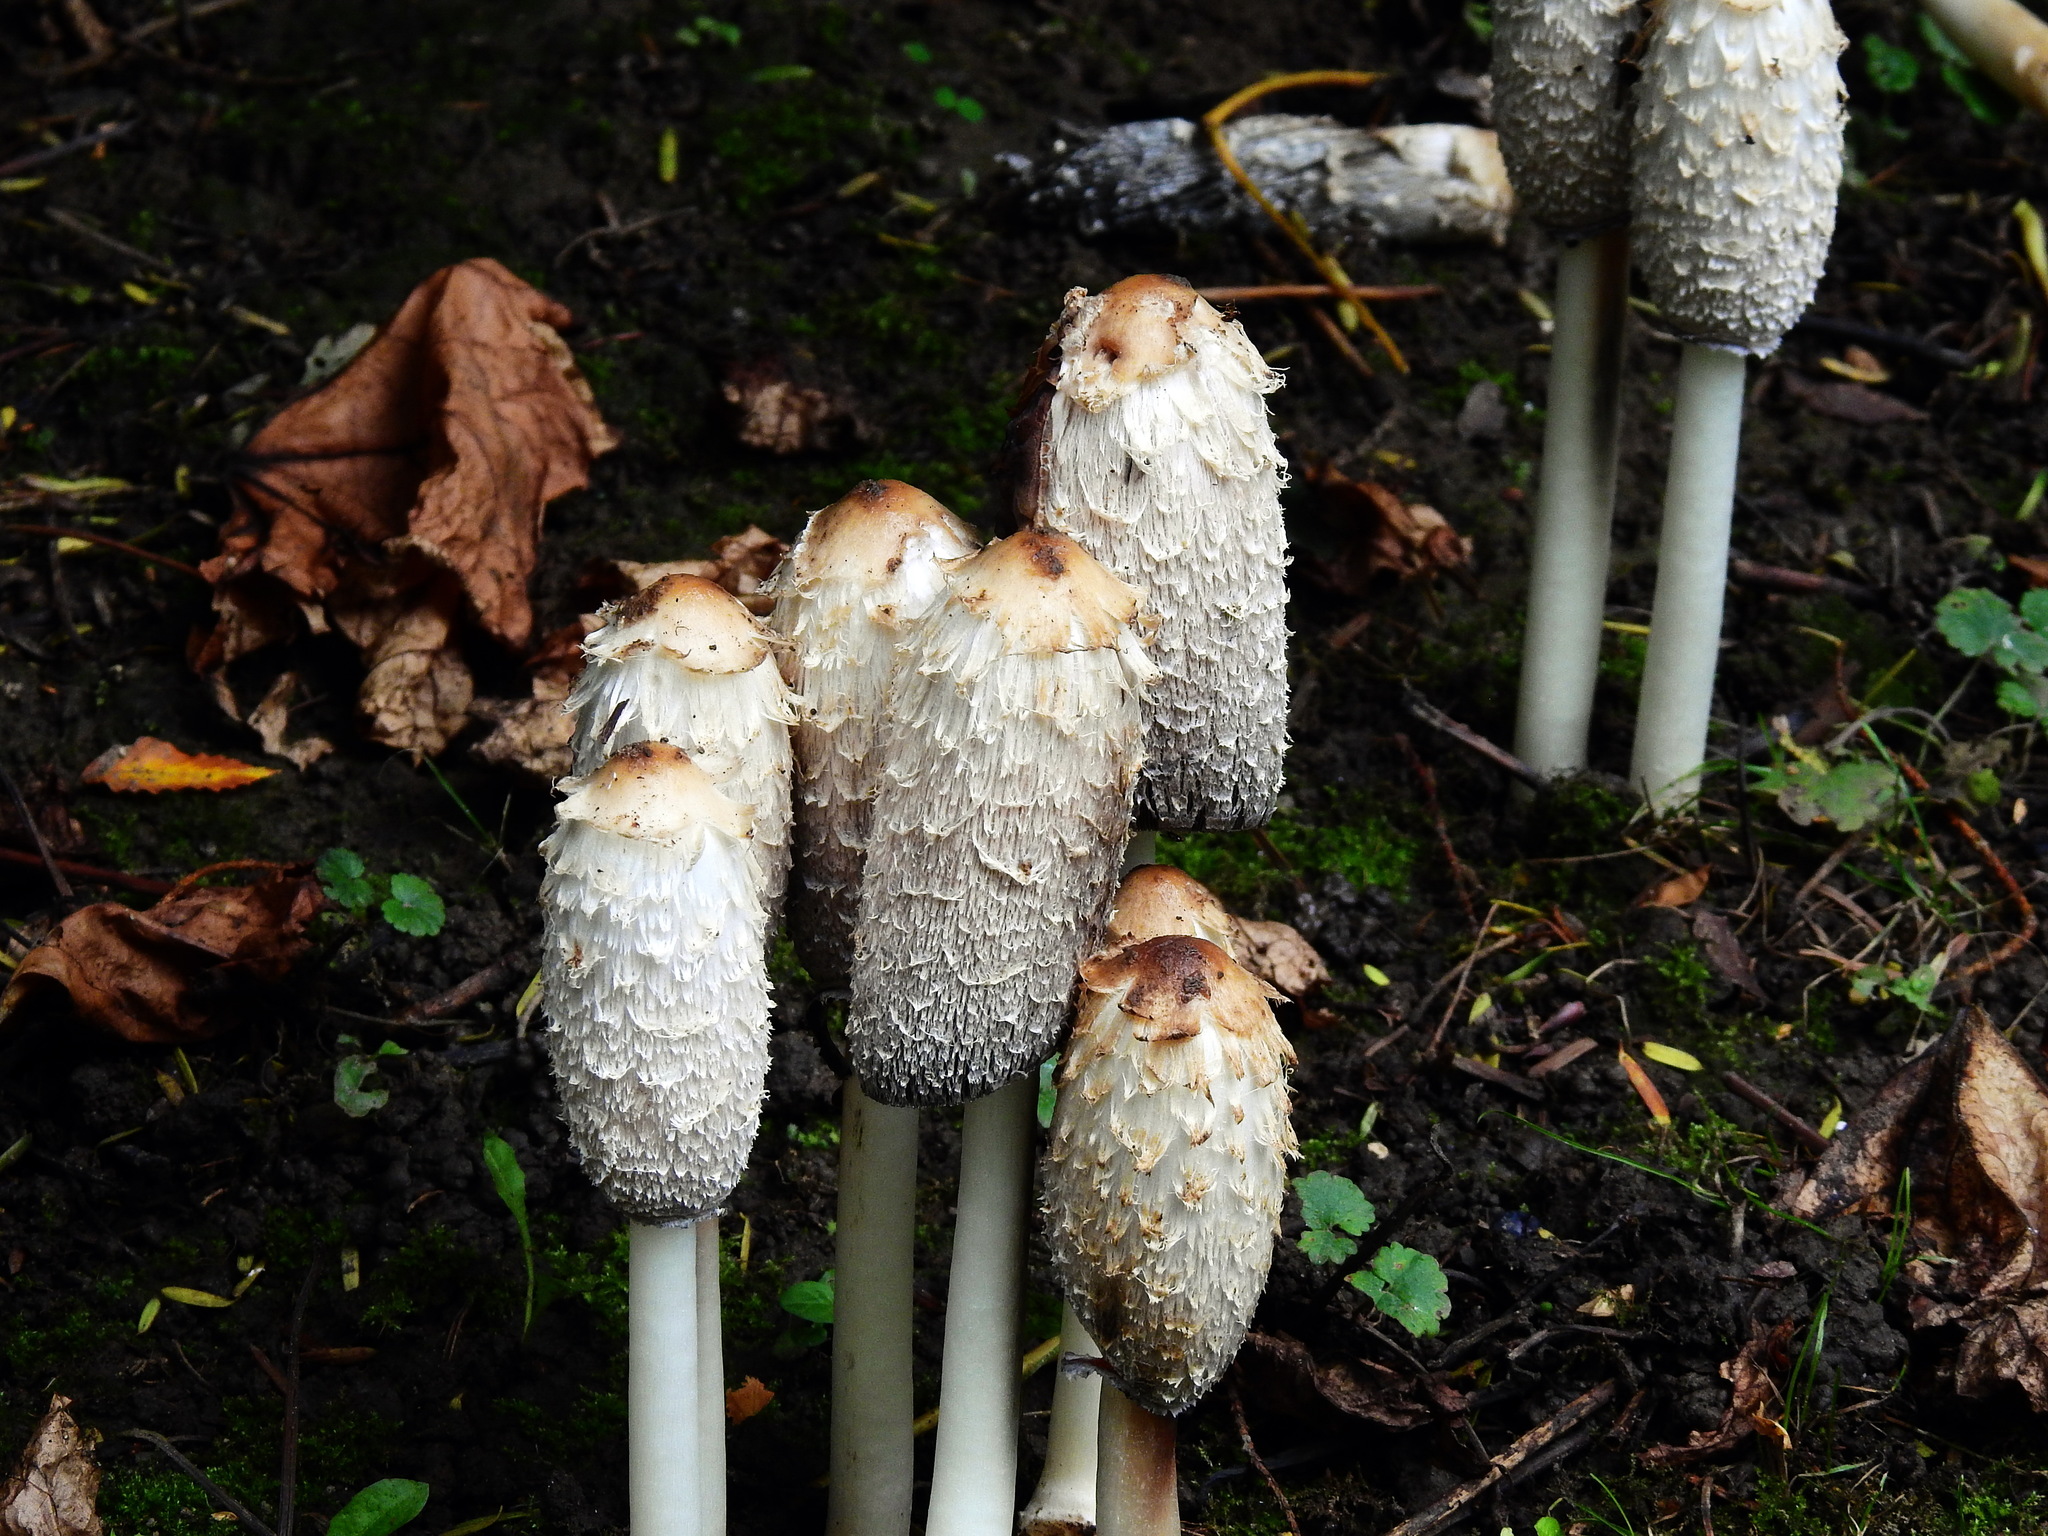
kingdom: Fungi
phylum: Basidiomycota
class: Agaricomycetes
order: Agaricales
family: Agaricaceae
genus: Coprinus
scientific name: Coprinus comatus
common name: Lawyer's wig
